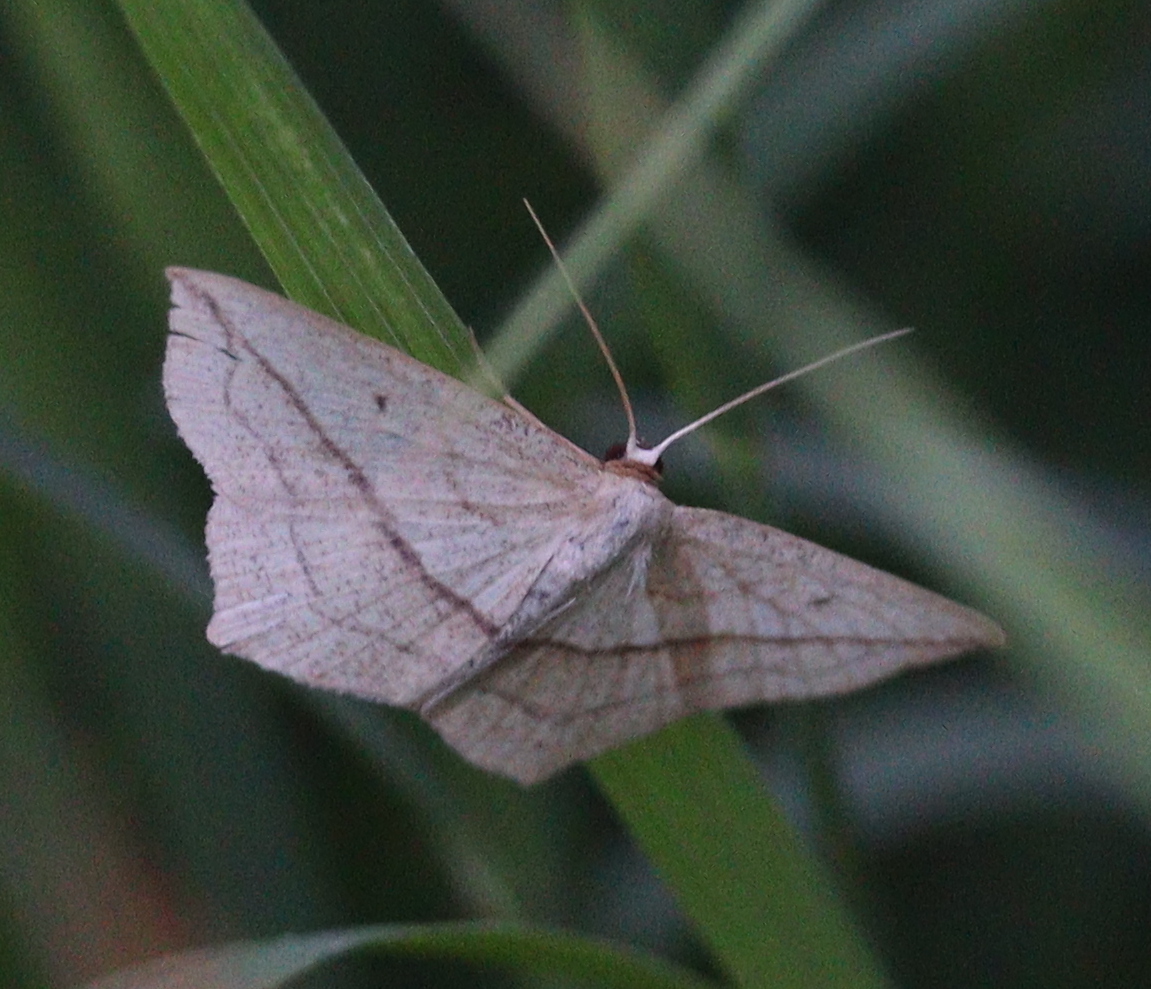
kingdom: Animalia
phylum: Arthropoda
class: Insecta
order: Lepidoptera
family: Geometridae
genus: Timandra
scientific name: Timandra comae
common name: Blood-vein
